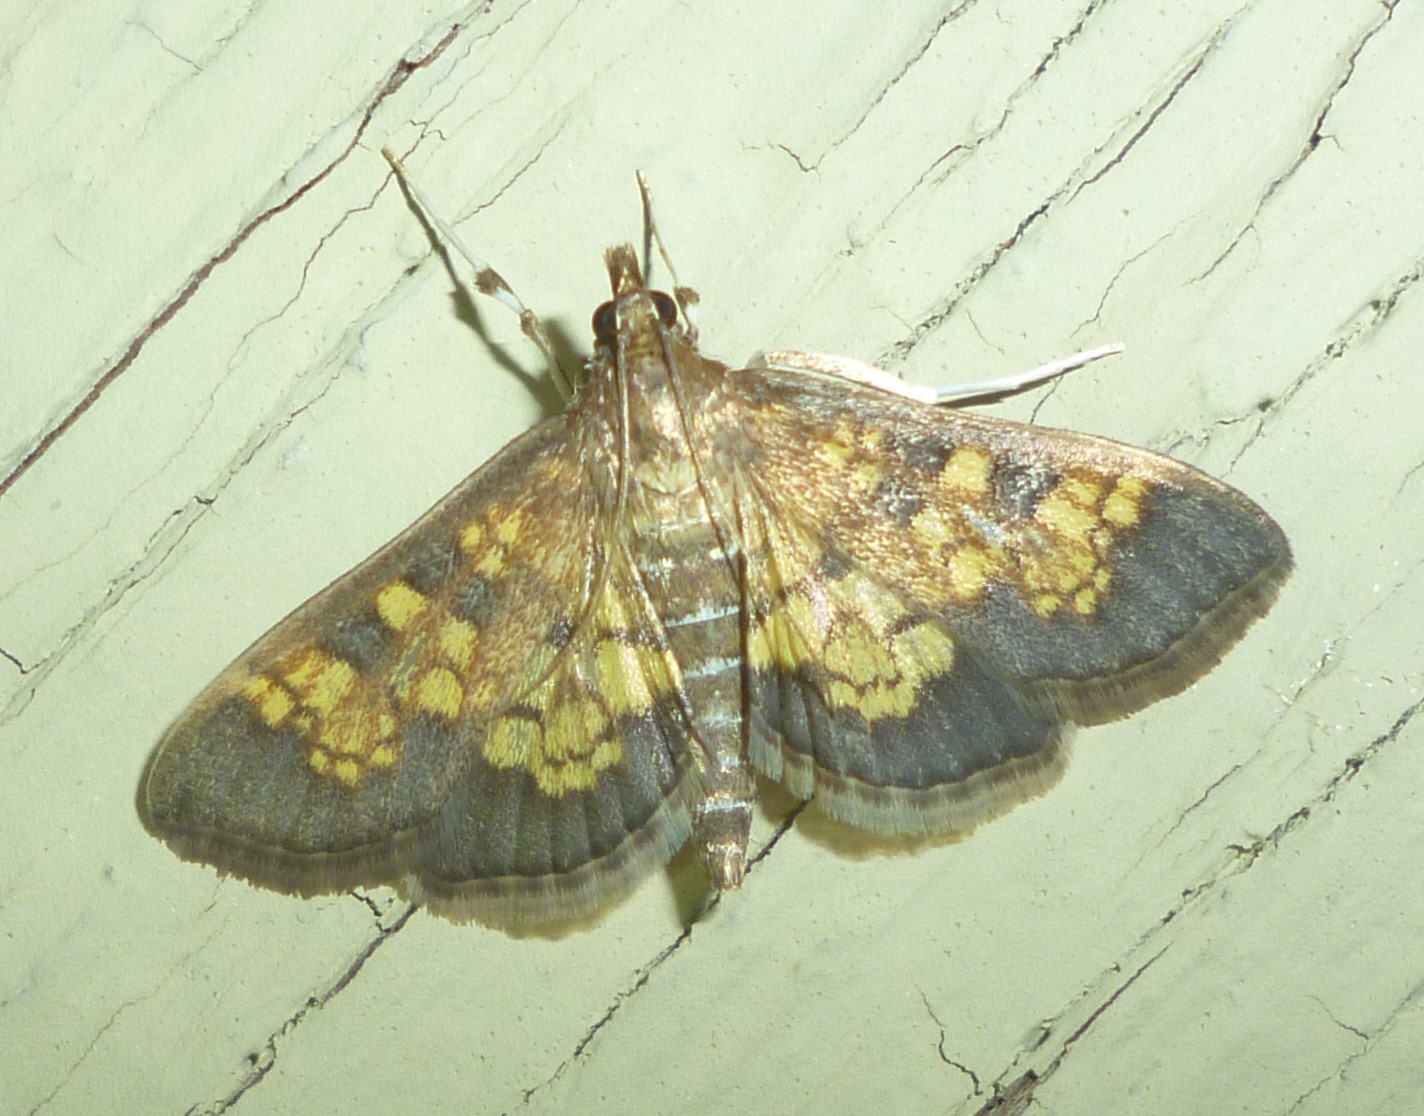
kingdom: Animalia
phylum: Arthropoda
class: Insecta
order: Lepidoptera
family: Crambidae
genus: Epipagis
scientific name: Epipagis adipaloides
